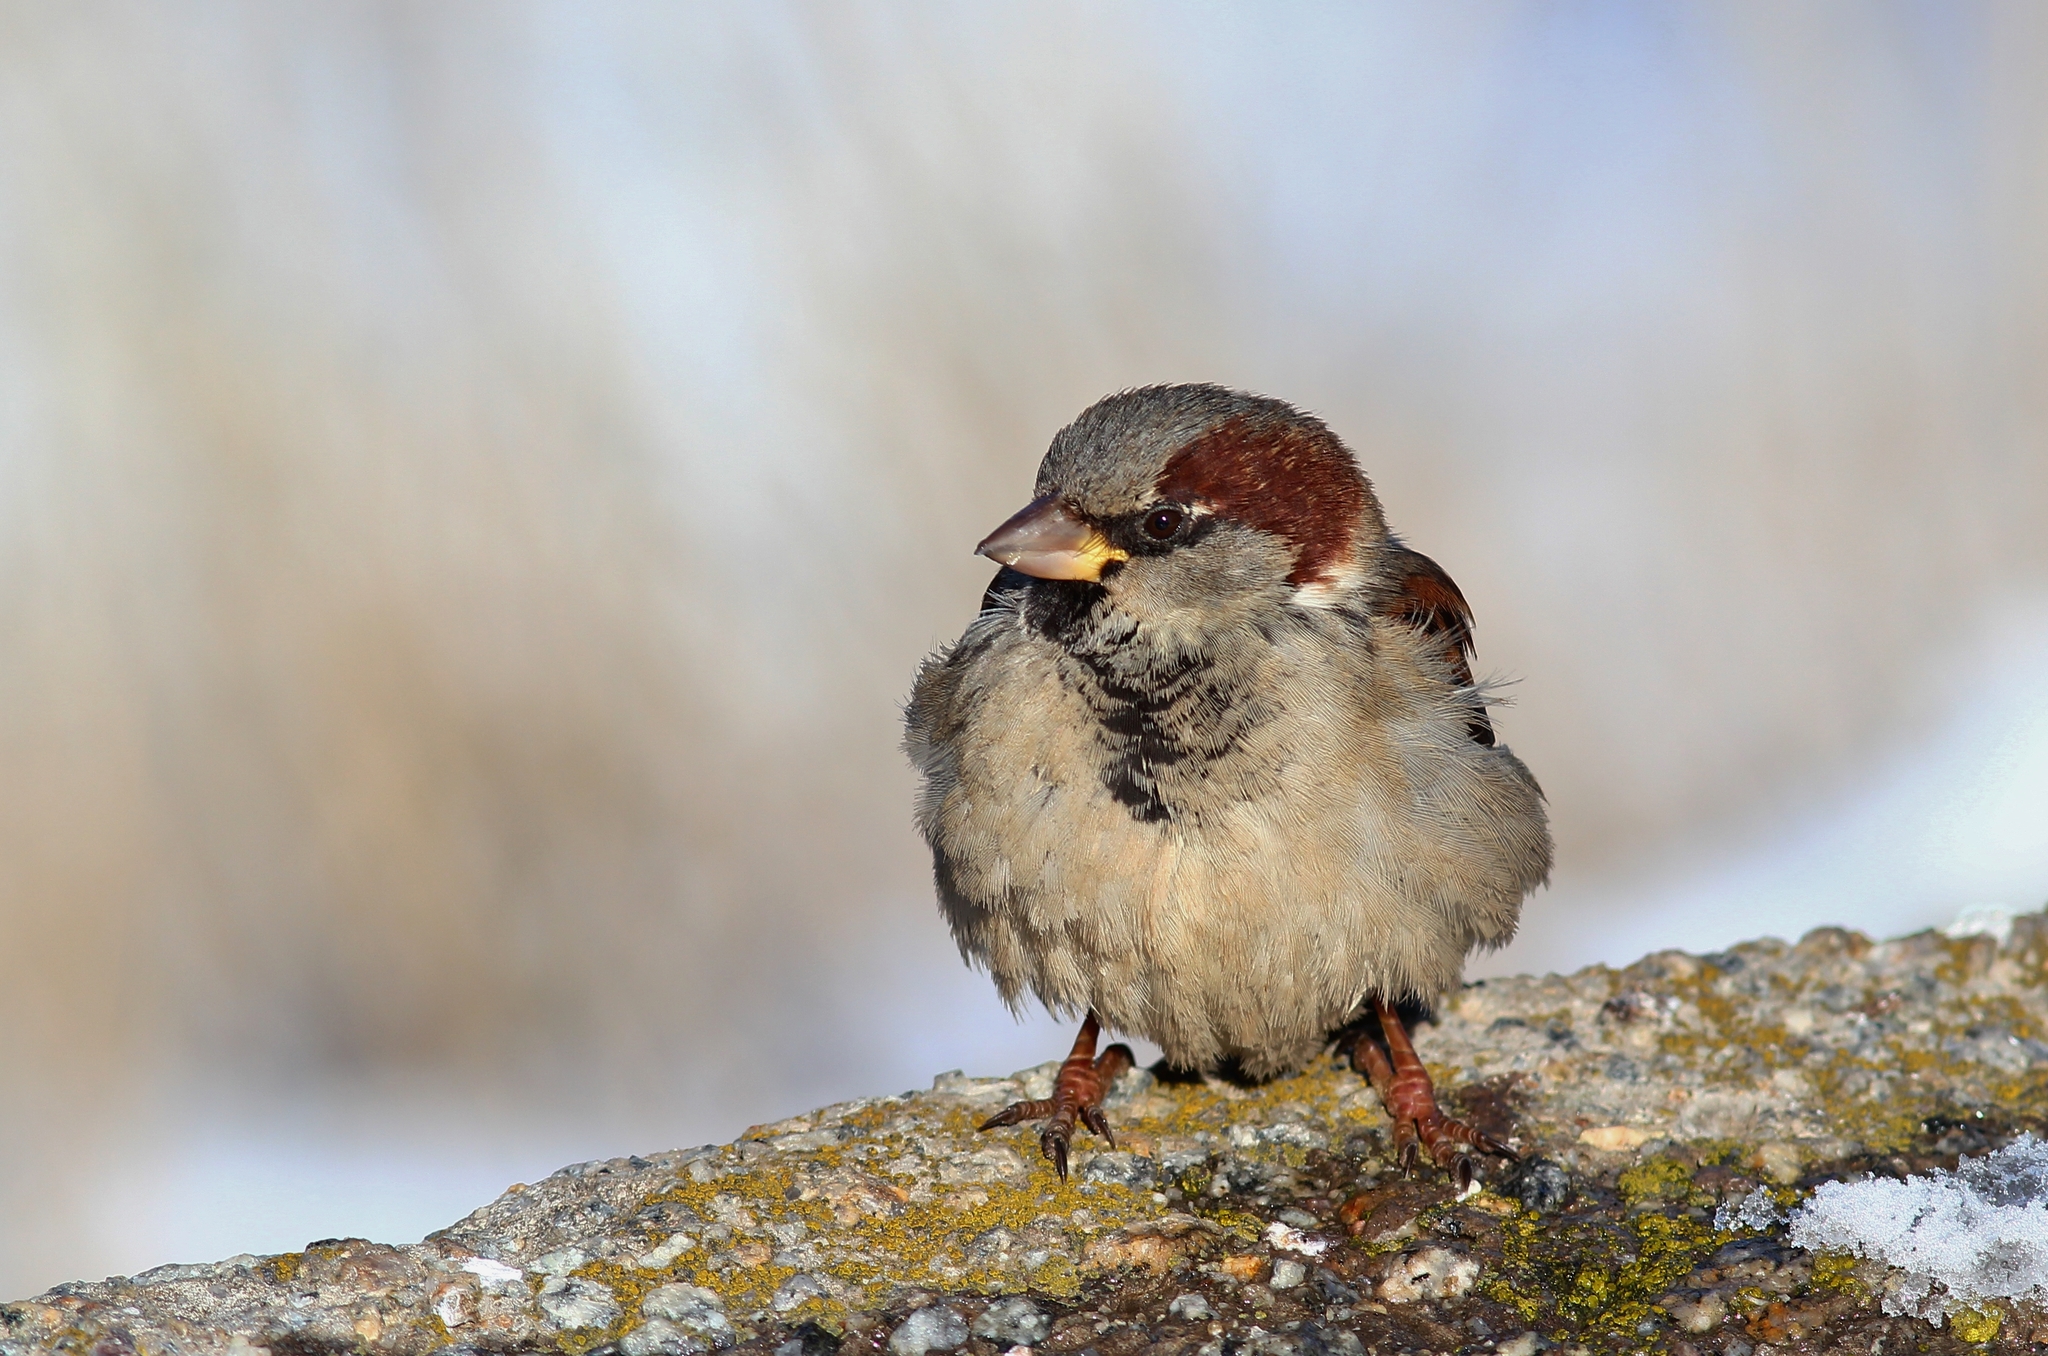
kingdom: Animalia
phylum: Chordata
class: Aves
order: Passeriformes
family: Passeridae
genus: Passer
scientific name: Passer domesticus
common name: House sparrow
